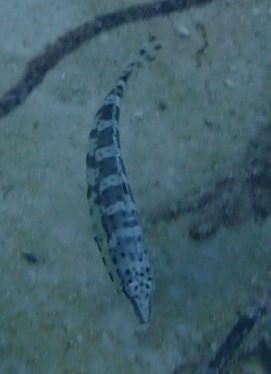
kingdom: Animalia
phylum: Chordata
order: Perciformes
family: Serranidae
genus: Serranus
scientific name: Serranus tigrinus
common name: Harlequin bass
